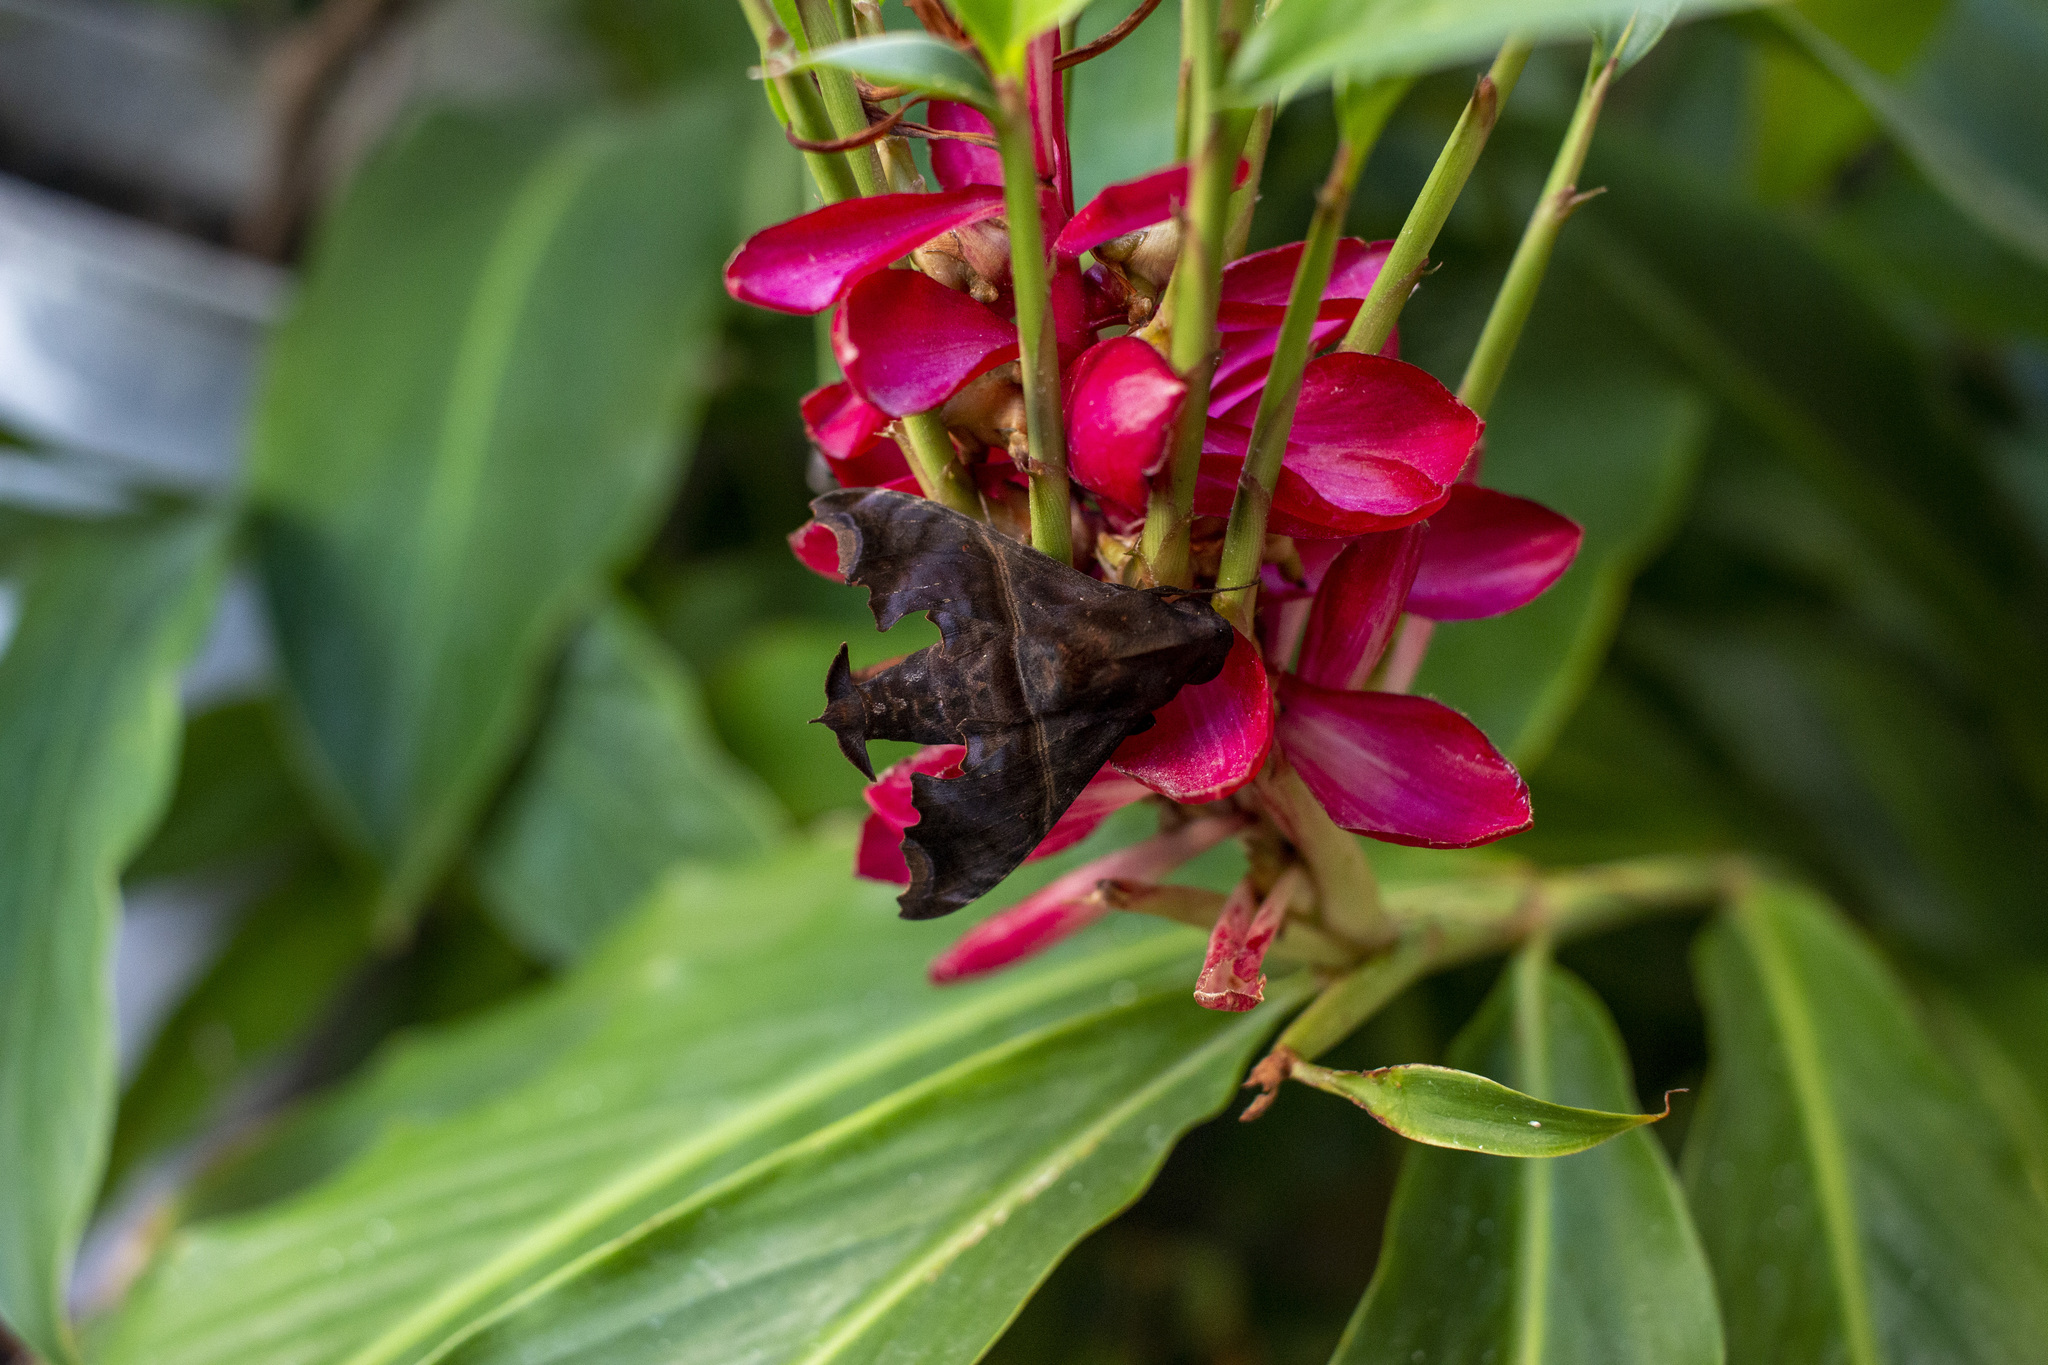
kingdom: Animalia
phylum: Arthropoda
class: Insecta
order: Lepidoptera
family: Sphingidae
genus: Enyo
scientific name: Enyo ocypete
